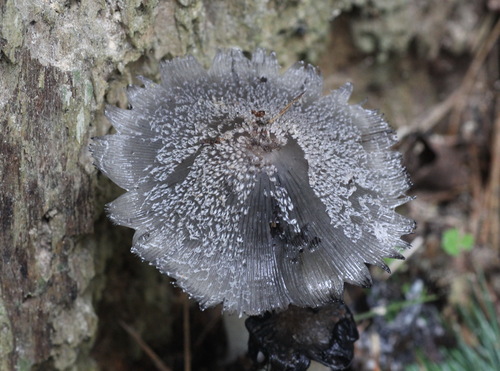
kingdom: Fungi
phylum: Basidiomycota
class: Agaricomycetes
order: Agaricales
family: Psathyrellaceae
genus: Coprinopsis
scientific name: Coprinopsis jonesii
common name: Bonfire inkcap
